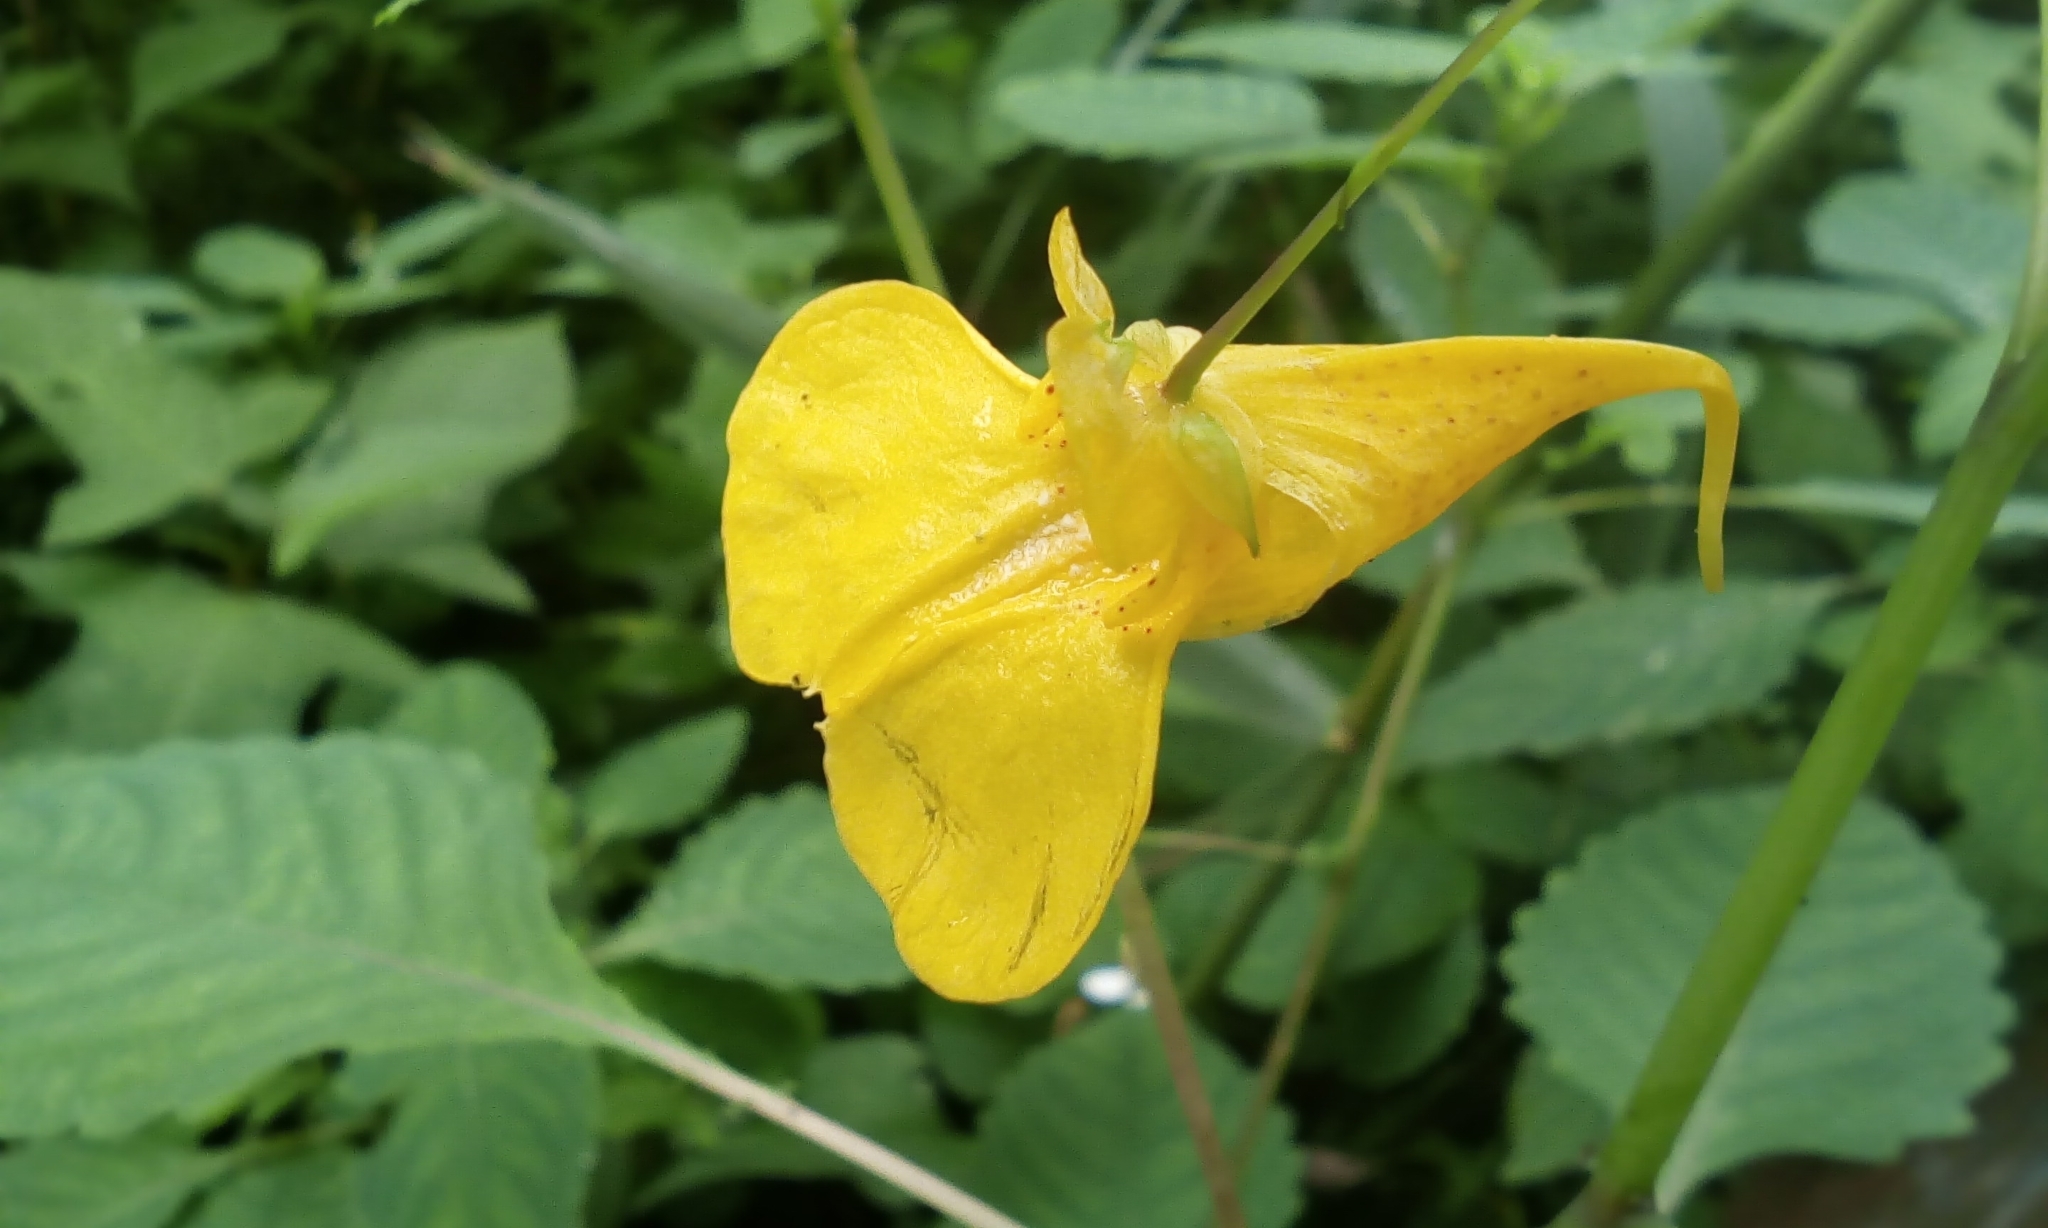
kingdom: Plantae
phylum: Tracheophyta
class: Magnoliopsida
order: Ericales
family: Balsaminaceae
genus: Impatiens
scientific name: Impatiens noli-tangere
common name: Touch-me-not balsam
